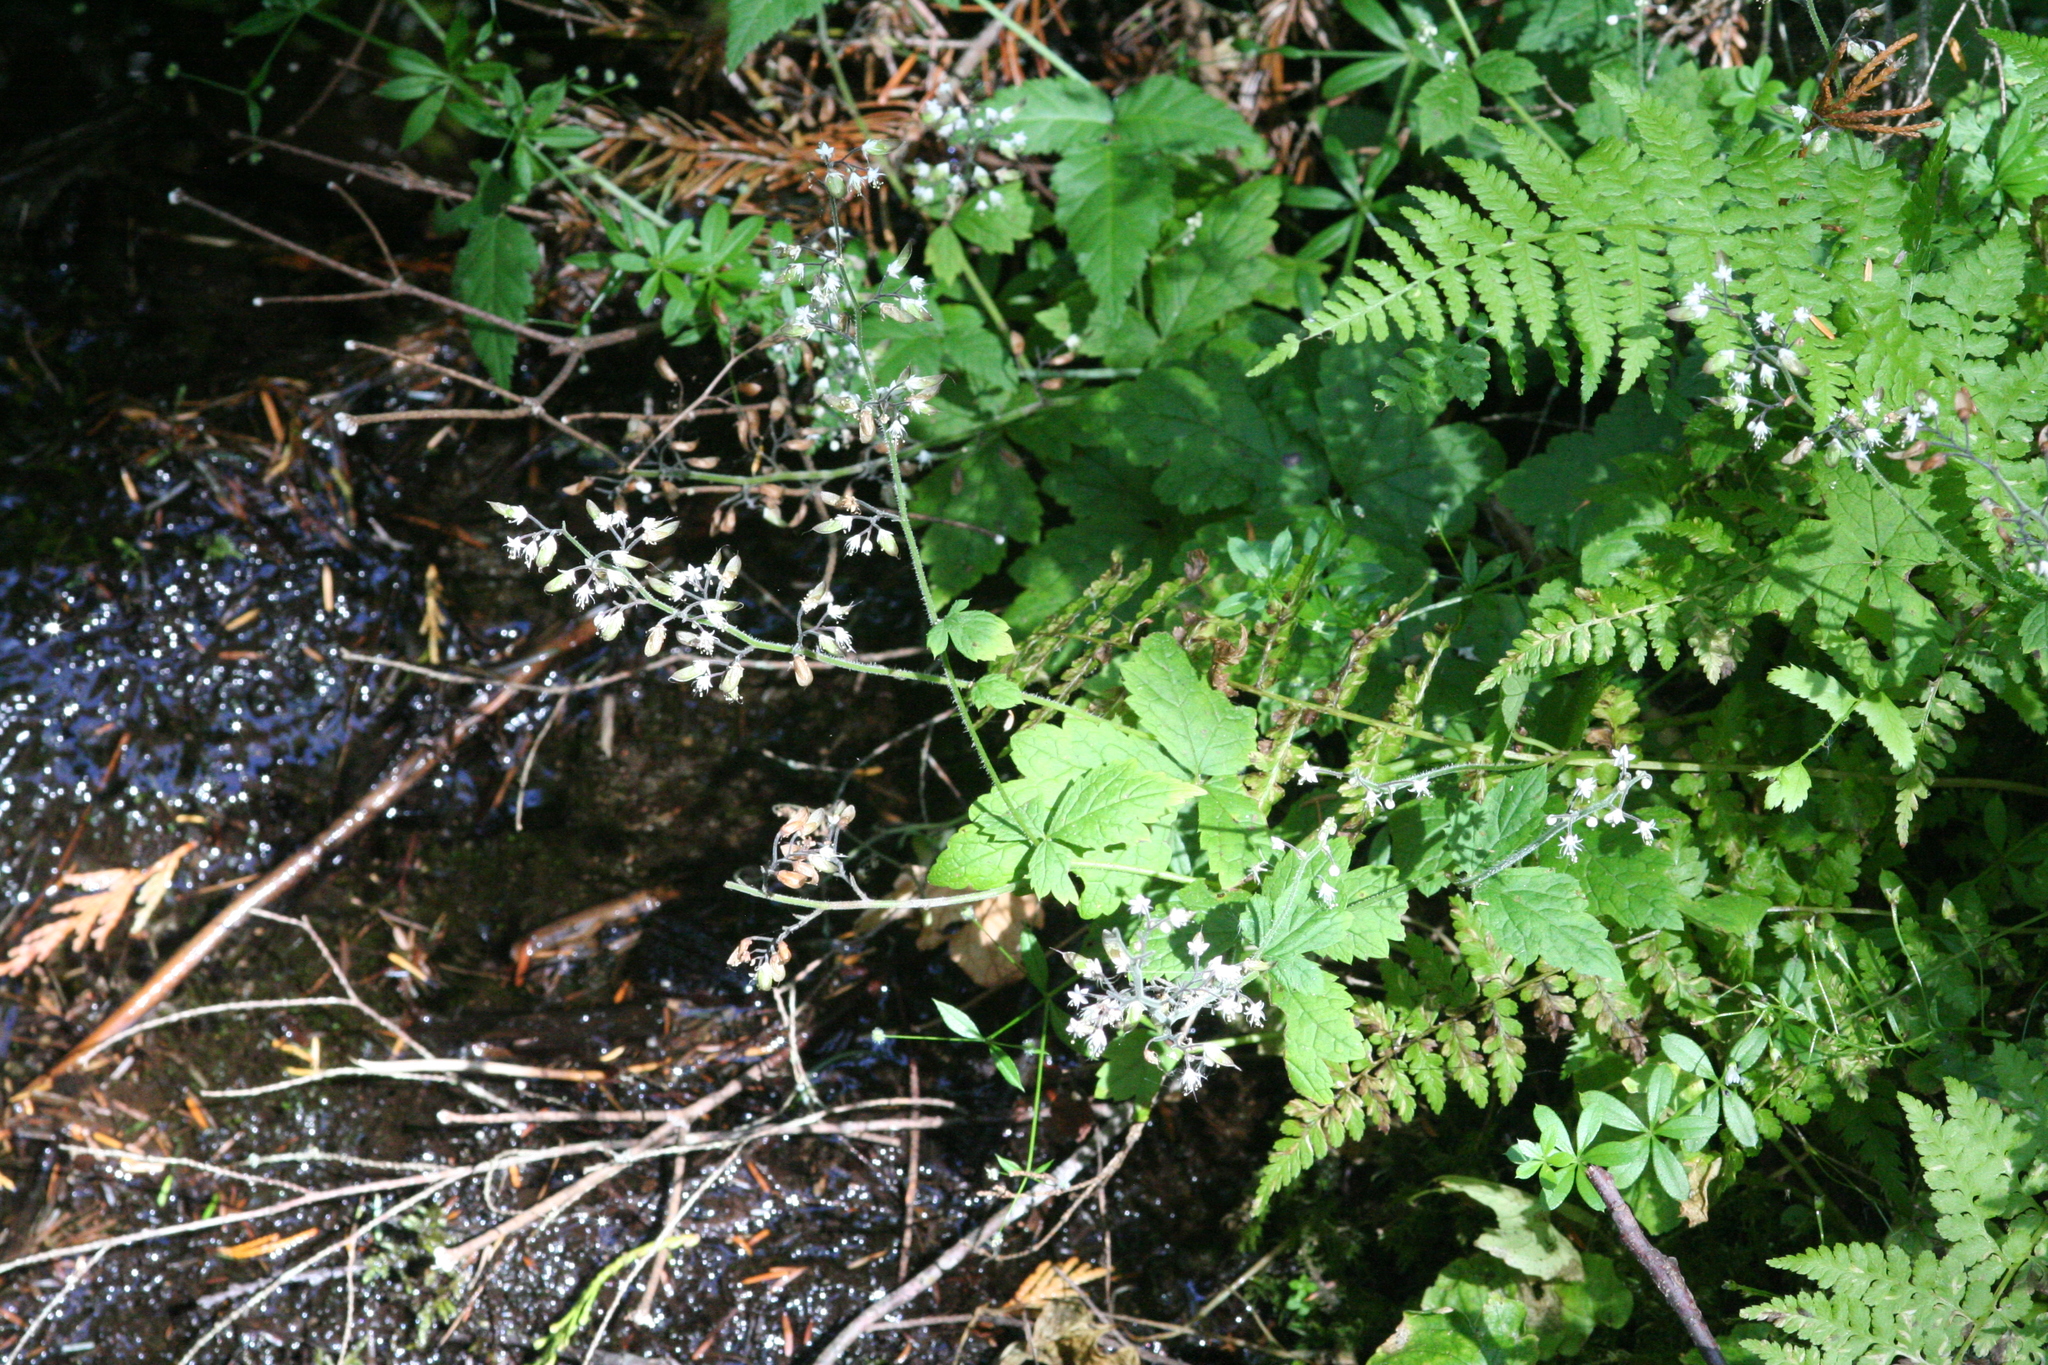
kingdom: Plantae
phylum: Tracheophyta
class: Magnoliopsida
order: Saxifragales
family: Saxifragaceae
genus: Tiarella
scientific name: Tiarella trifoliata
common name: Sugar-scoop
